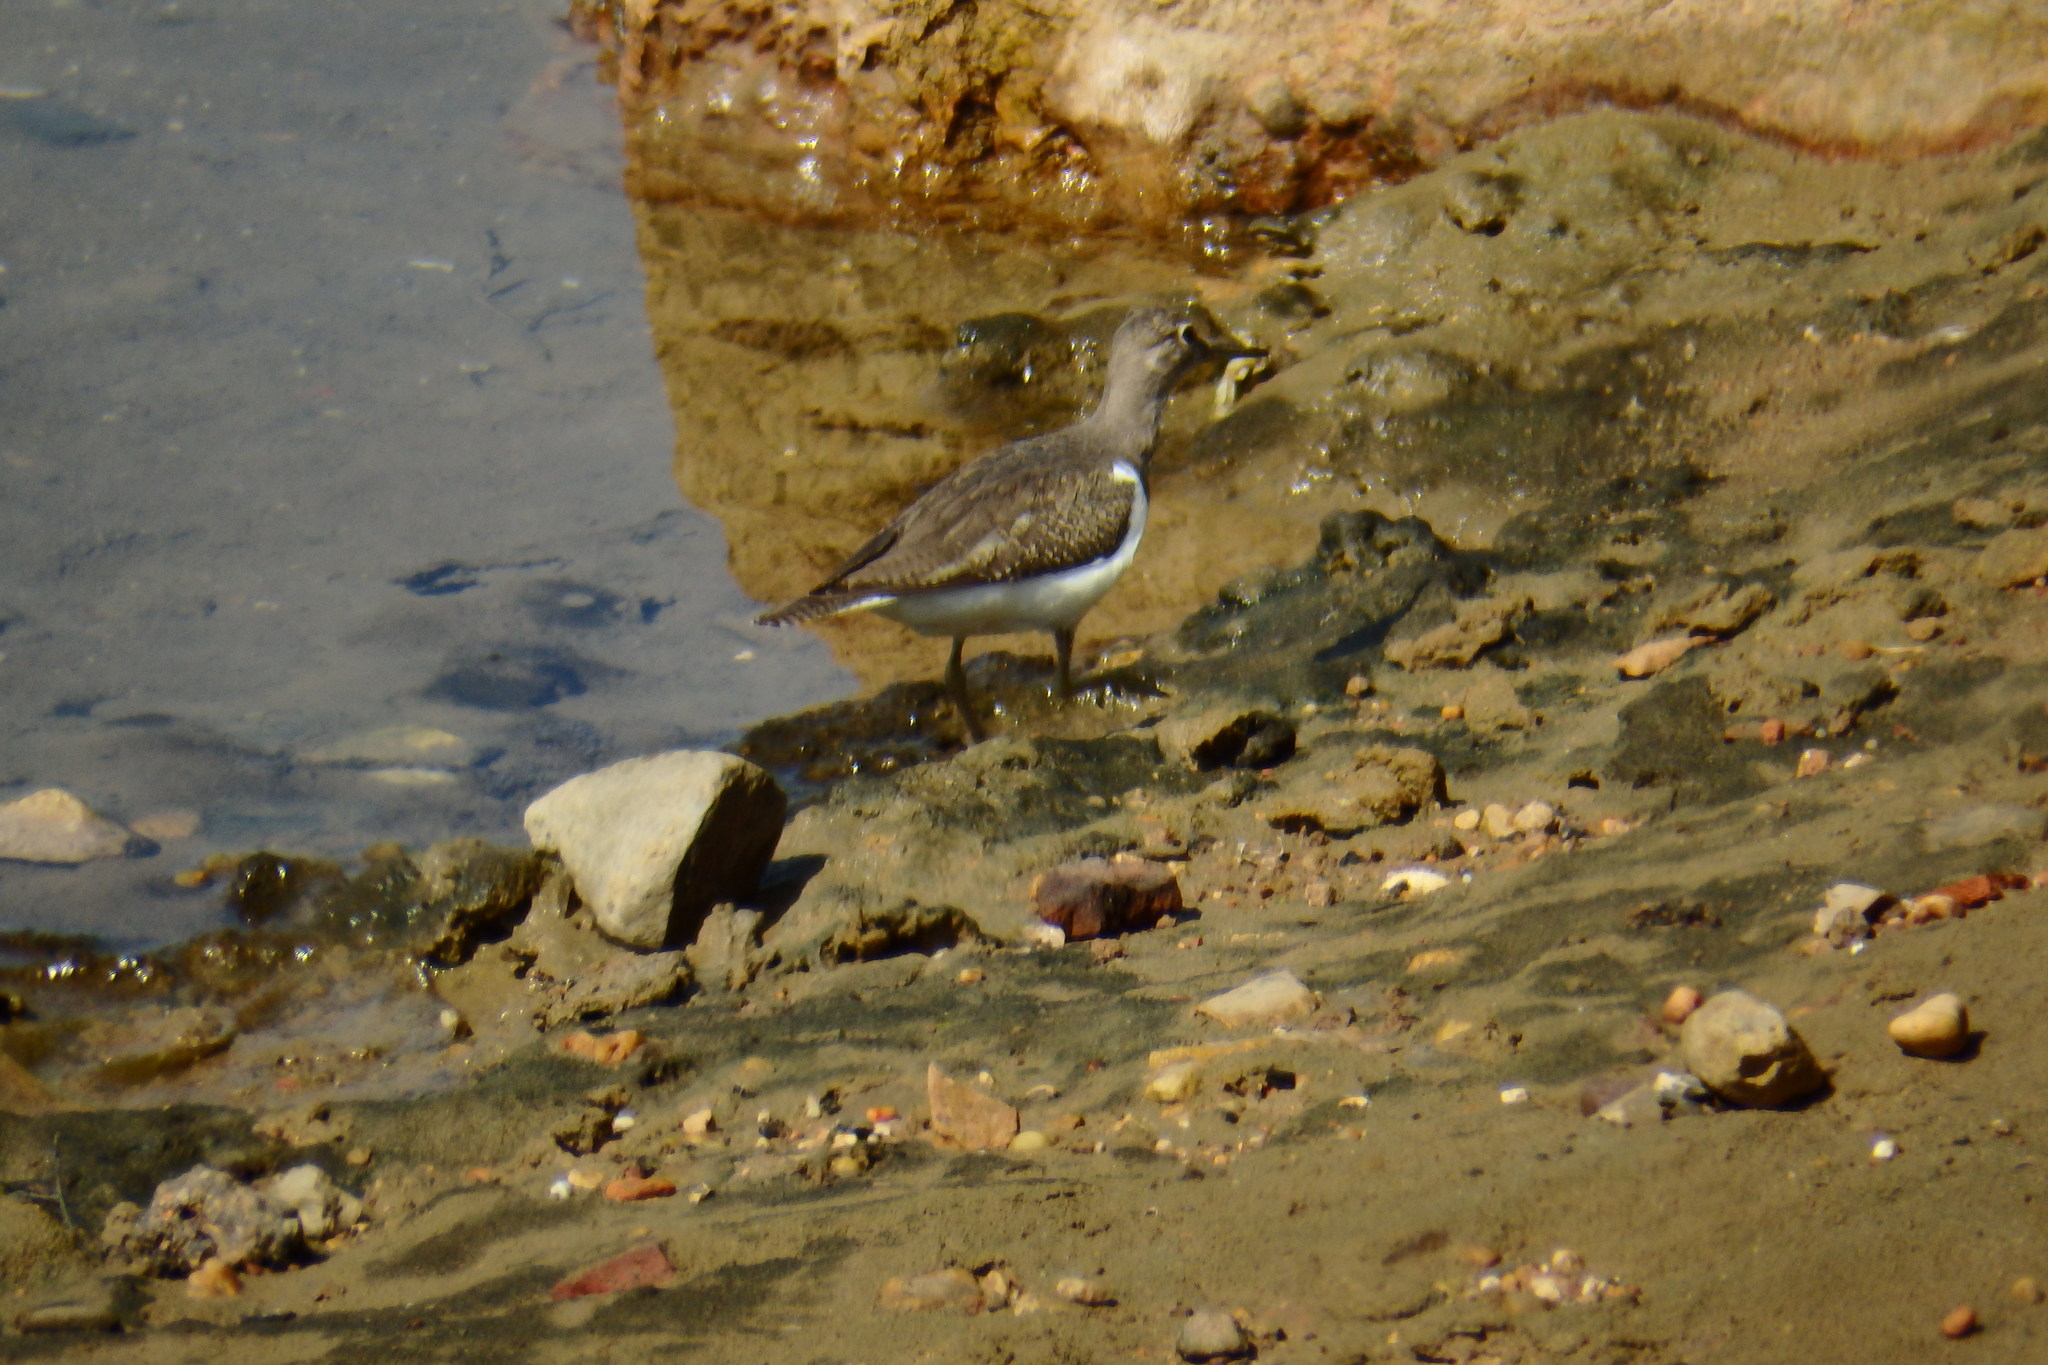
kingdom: Animalia
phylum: Chordata
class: Aves
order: Charadriiformes
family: Scolopacidae
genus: Actitis
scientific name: Actitis hypoleucos
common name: Common sandpiper
